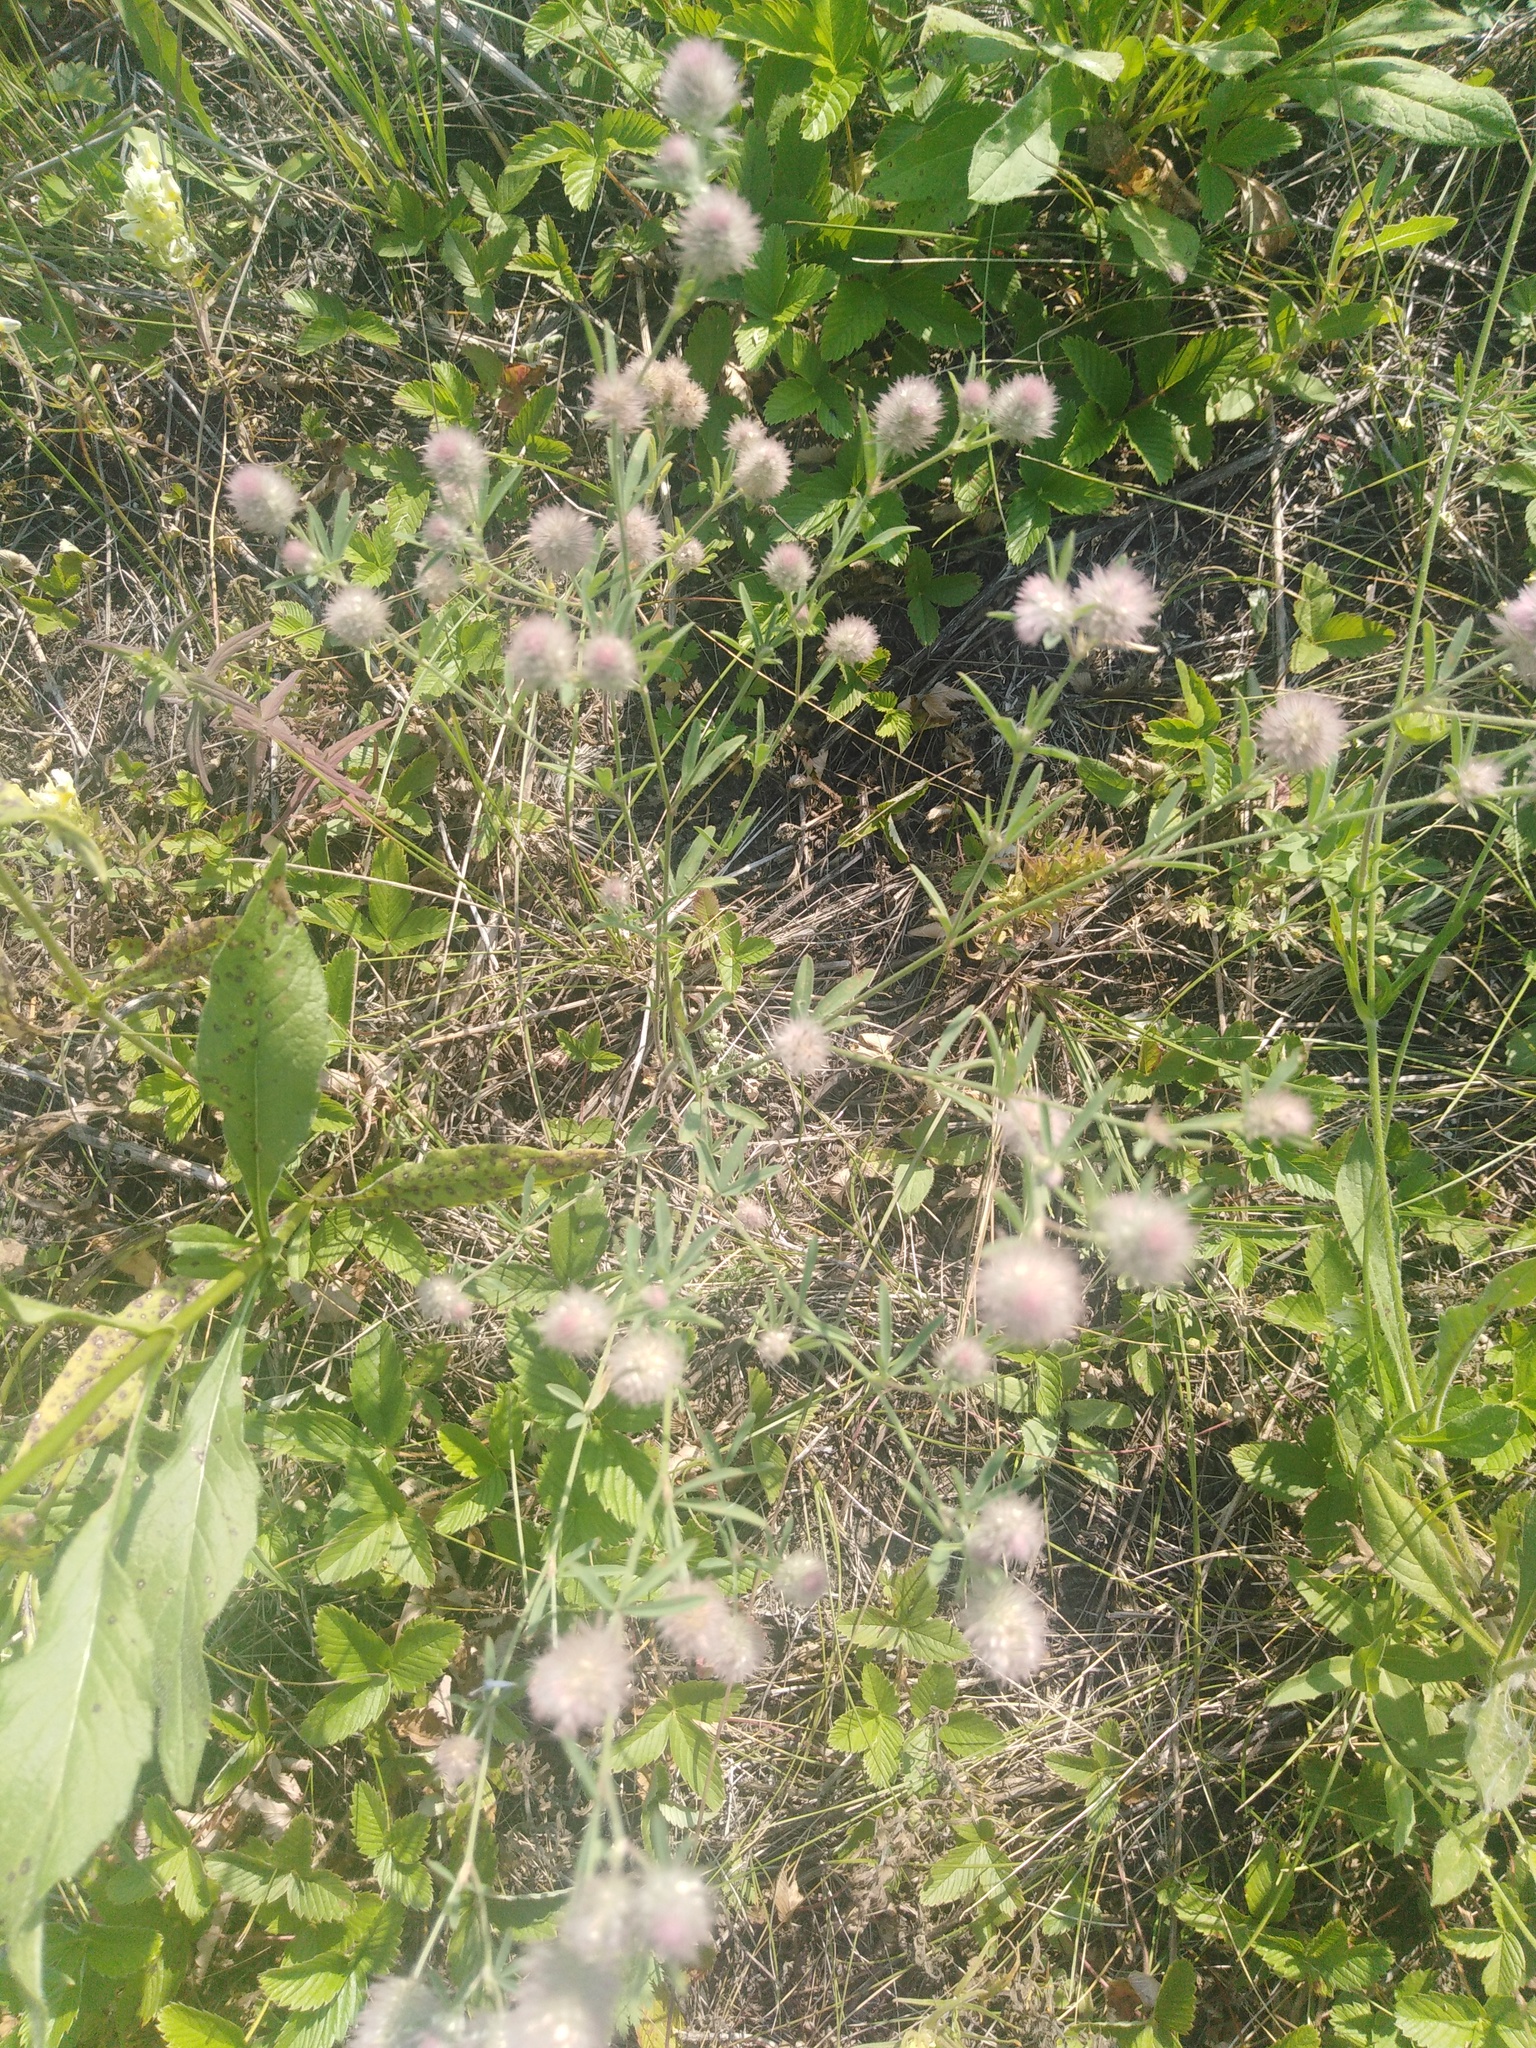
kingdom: Plantae
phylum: Tracheophyta
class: Magnoliopsida
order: Fabales
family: Fabaceae
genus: Trifolium
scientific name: Trifolium arvense
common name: Hare's-foot clover
